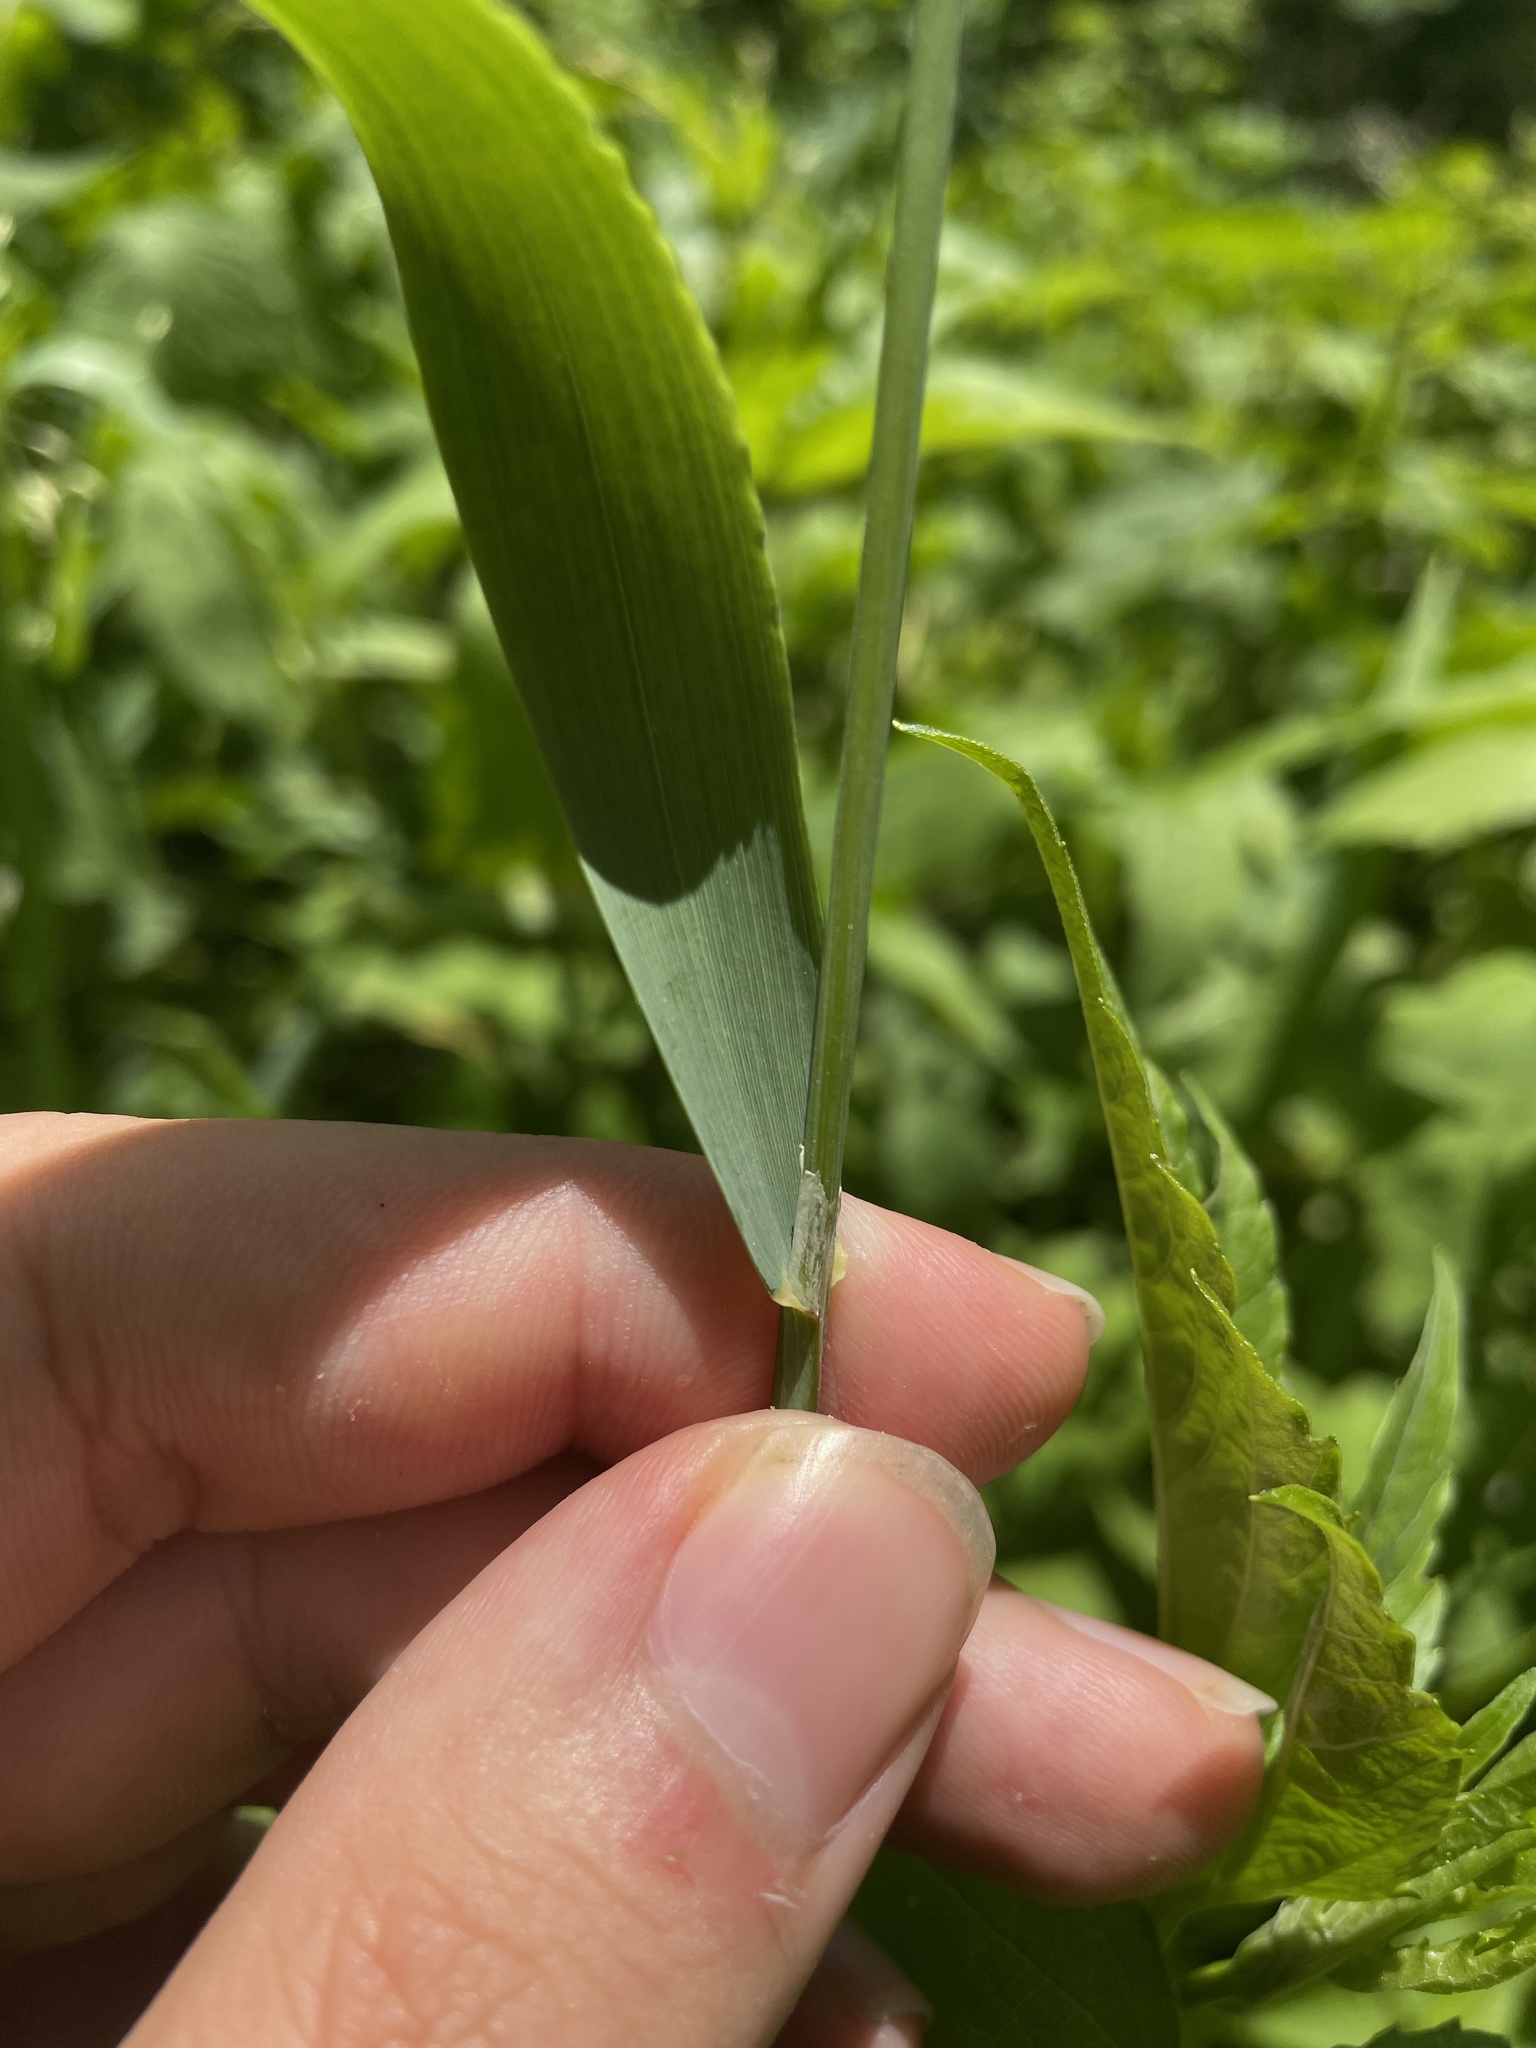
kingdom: Plantae
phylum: Tracheophyta
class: Liliopsida
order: Poales
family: Poaceae
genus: Milium
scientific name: Milium effusum
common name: Wood millet
